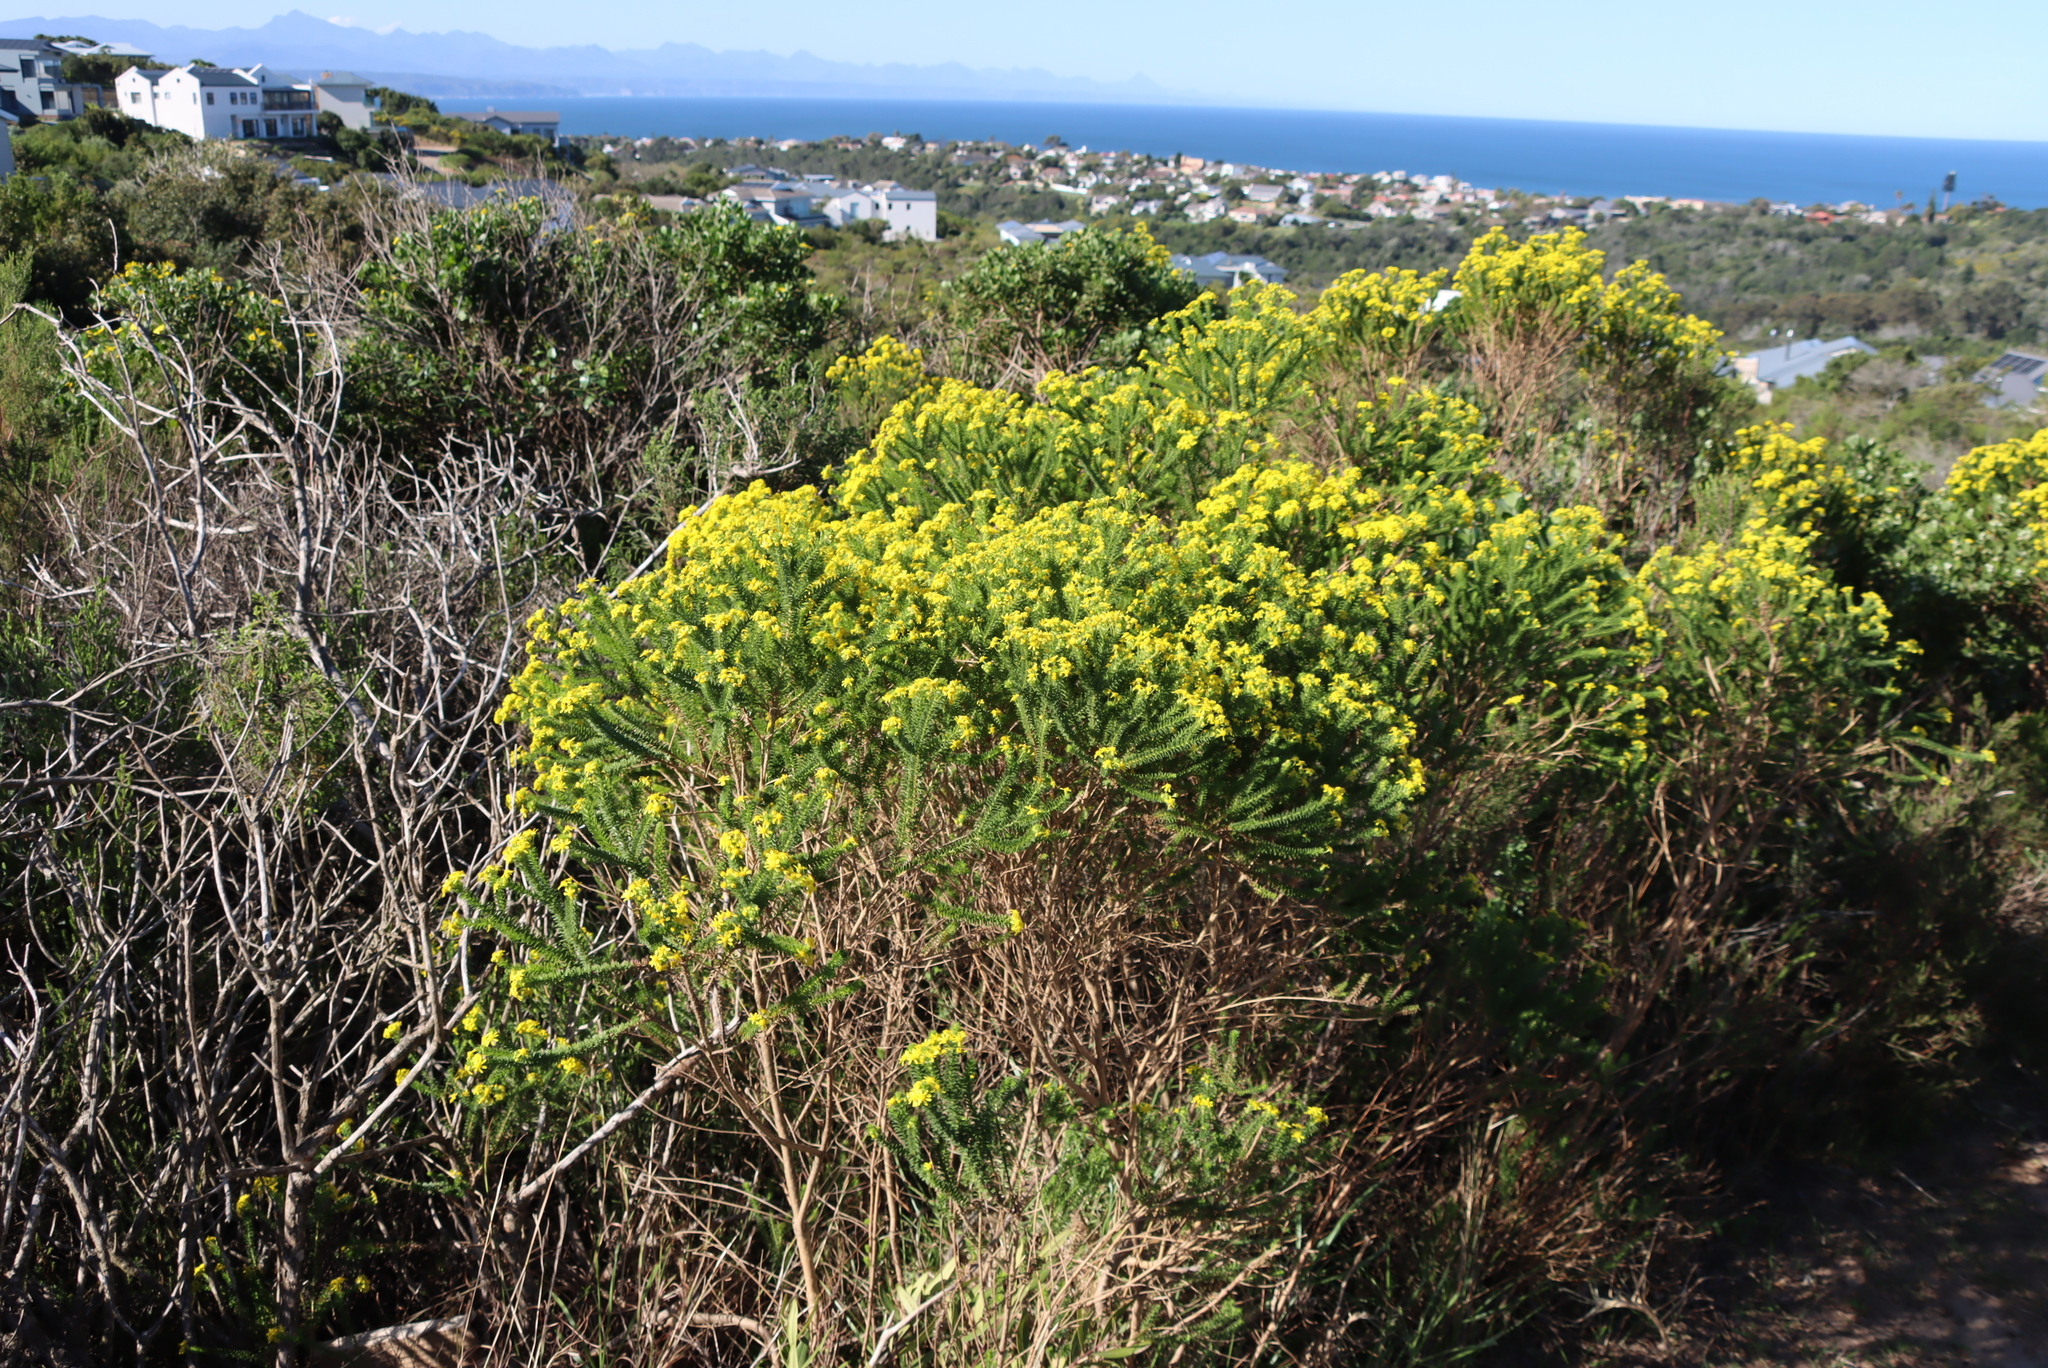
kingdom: Plantae
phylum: Tracheophyta
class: Magnoliopsida
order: Asterales
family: Asteraceae
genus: Euryops
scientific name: Euryops virgineus
